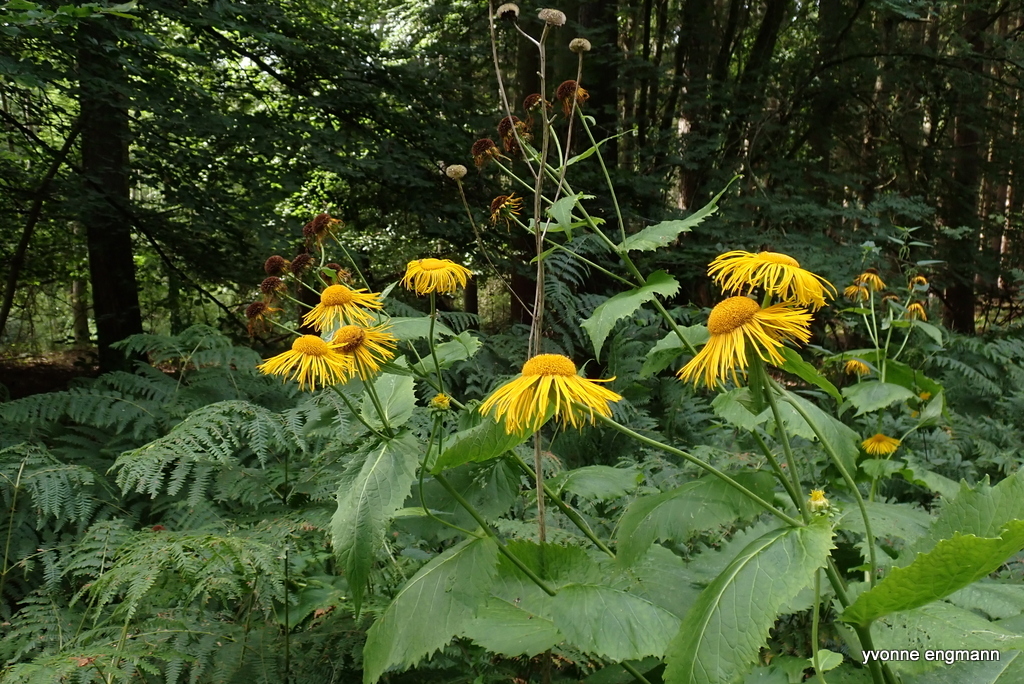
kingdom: Plantae
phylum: Tracheophyta
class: Magnoliopsida
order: Asterales
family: Asteraceae
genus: Telekia
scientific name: Telekia speciosa
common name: Yellow oxeye
